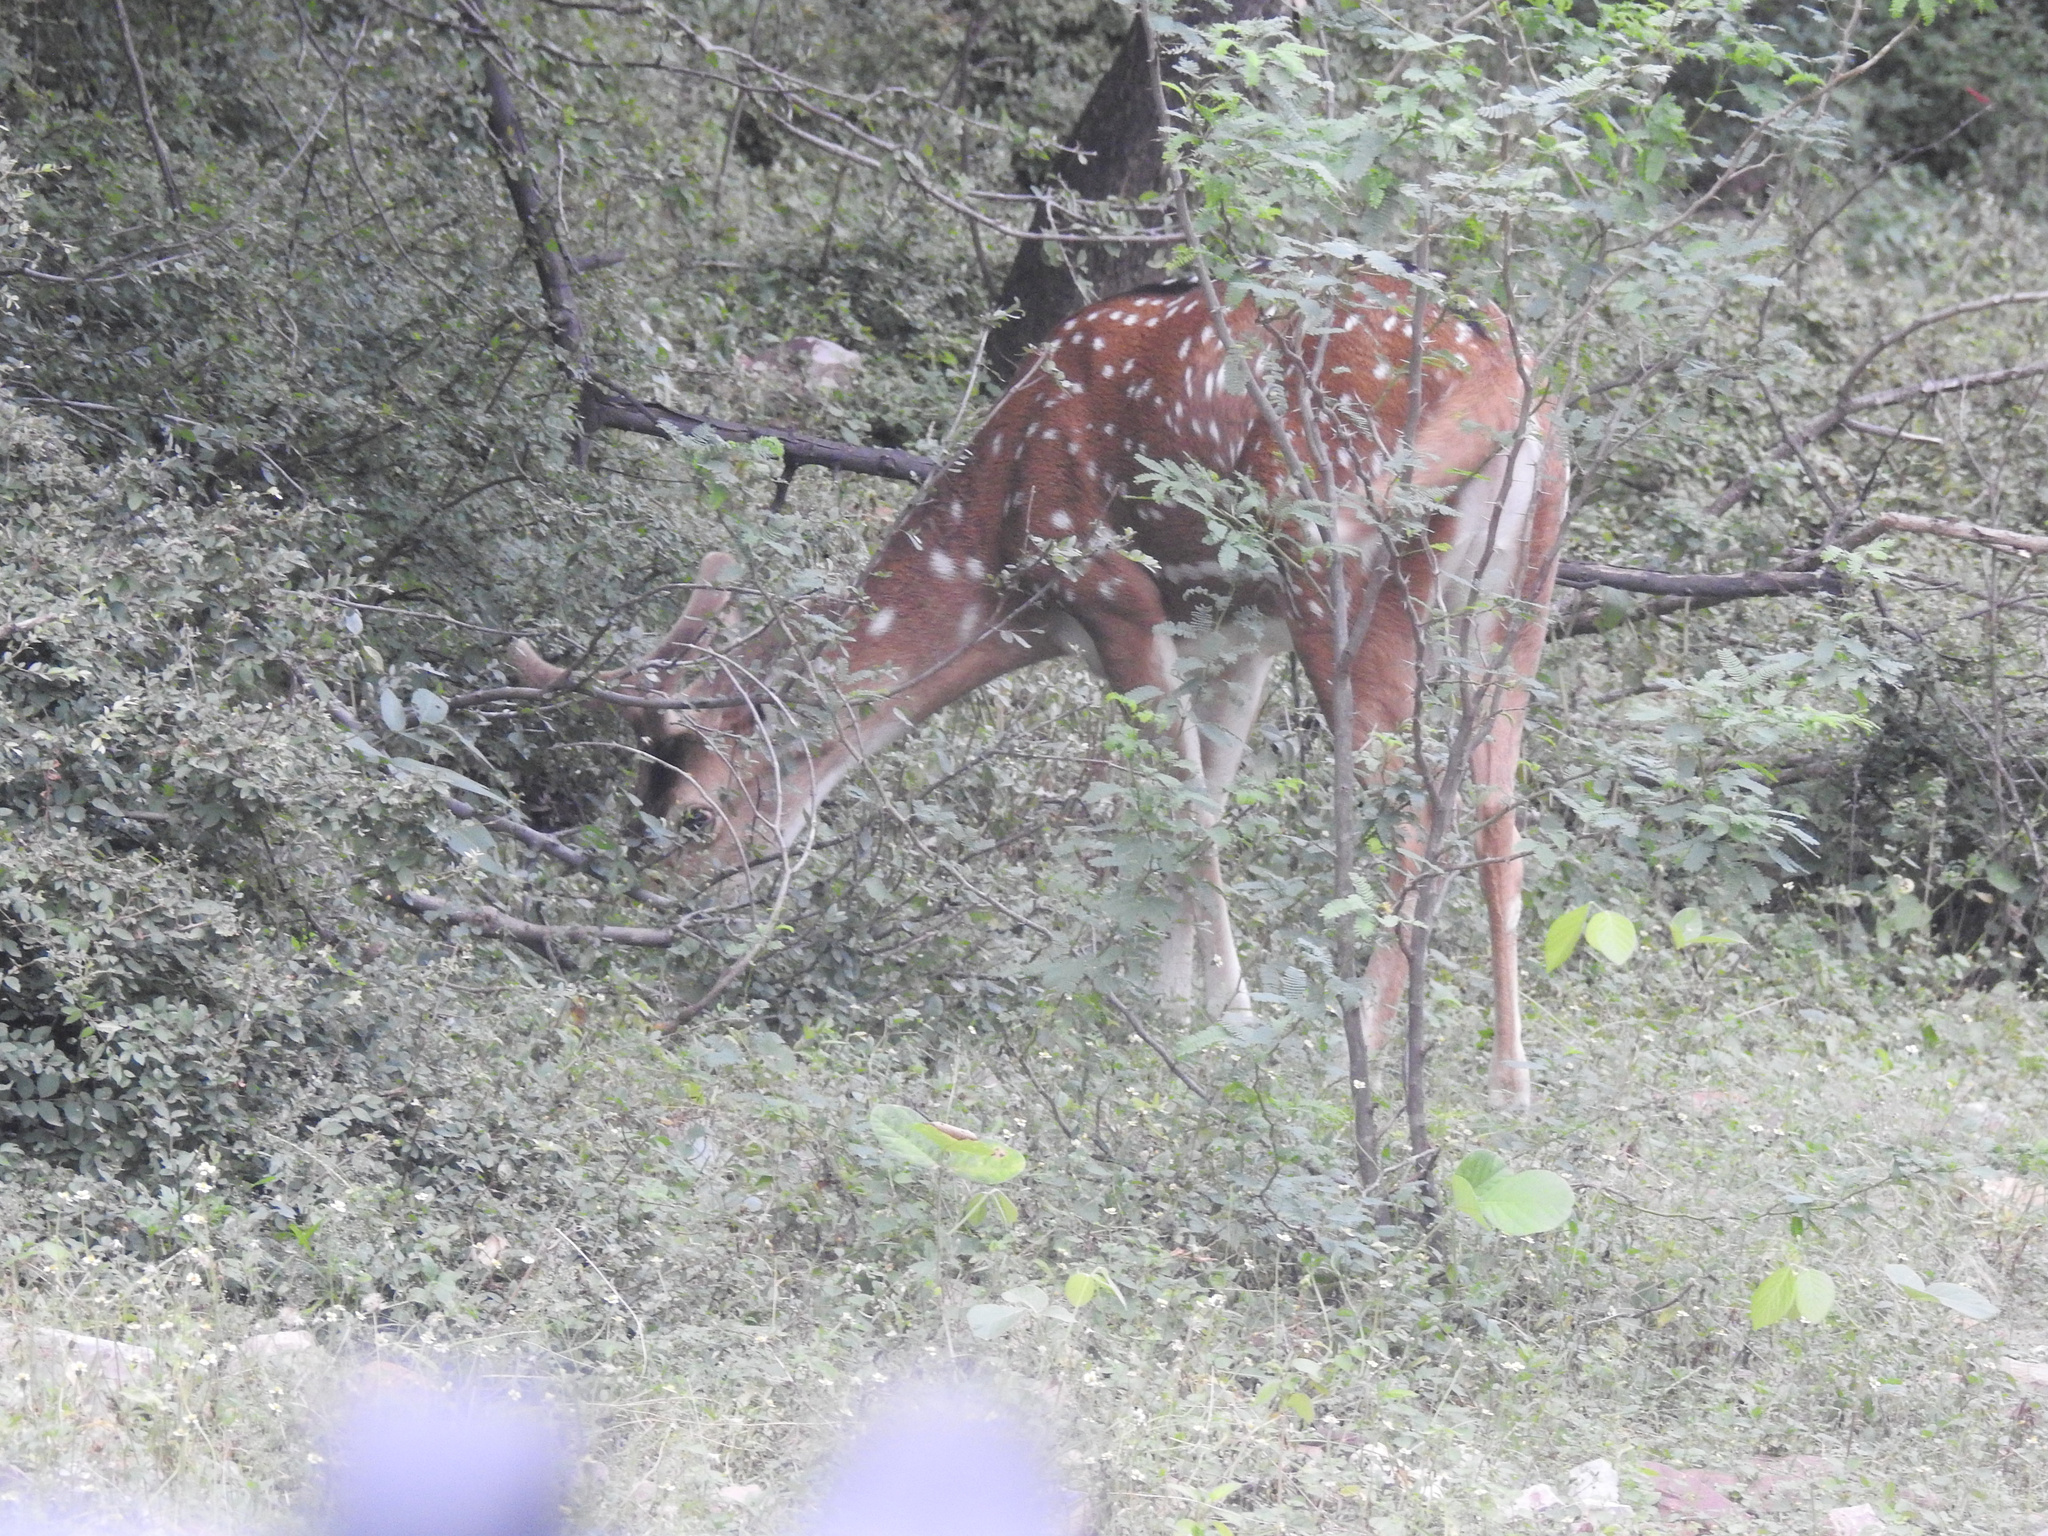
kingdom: Animalia
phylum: Chordata
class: Mammalia
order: Artiodactyla
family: Cervidae
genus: Axis
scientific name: Axis axis
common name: Chital
